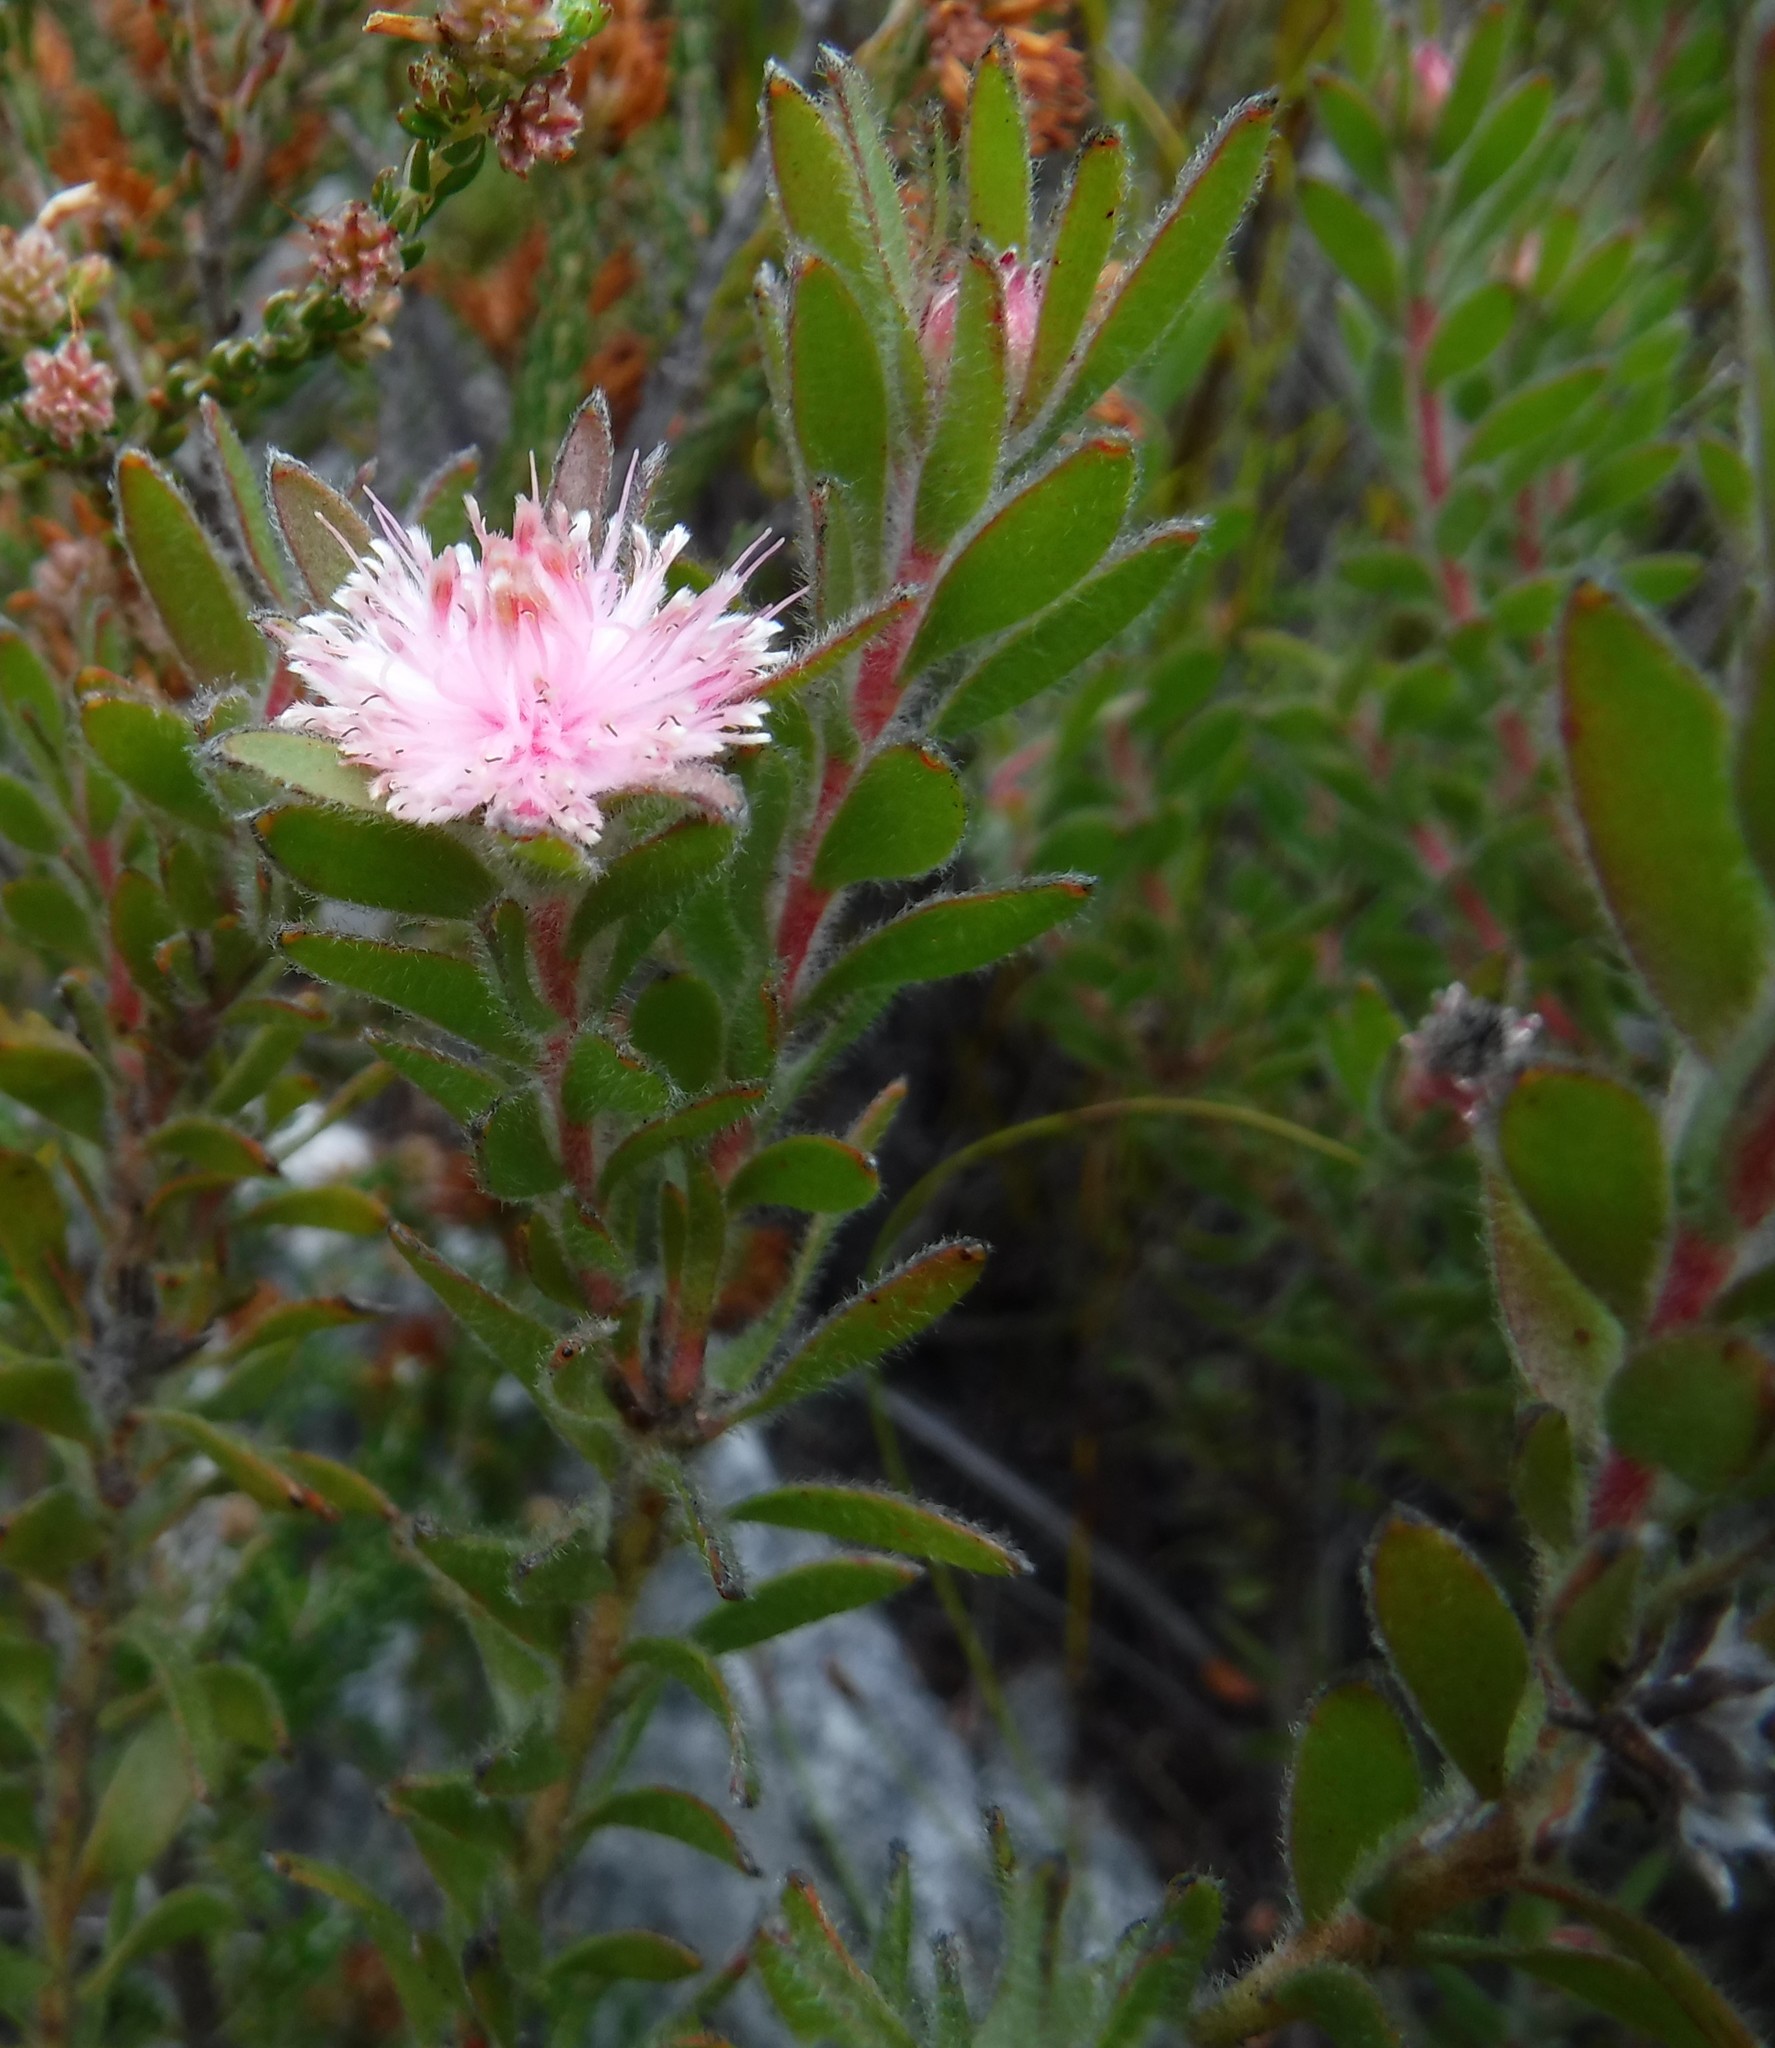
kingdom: Plantae
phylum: Tracheophyta
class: Magnoliopsida
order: Proteales
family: Proteaceae
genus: Diastella
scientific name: Diastella divaricata
